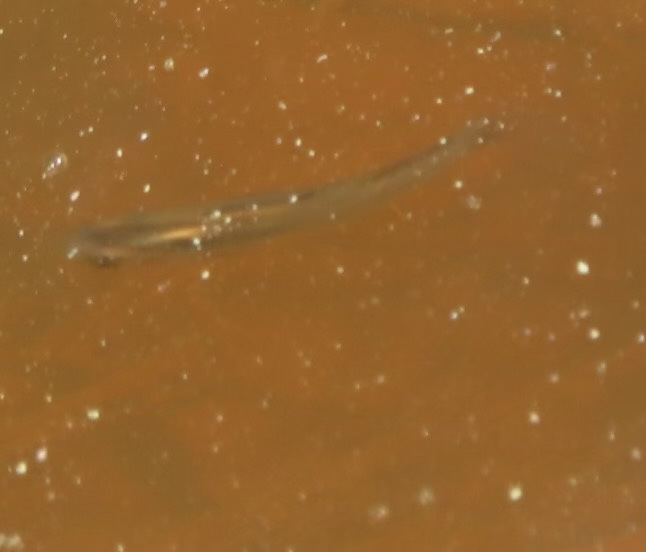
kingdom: Animalia
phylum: Chordata
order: Cyprinodontiformes
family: Poeciliidae
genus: Gambusia
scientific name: Gambusia affinis
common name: Mosquitofish
